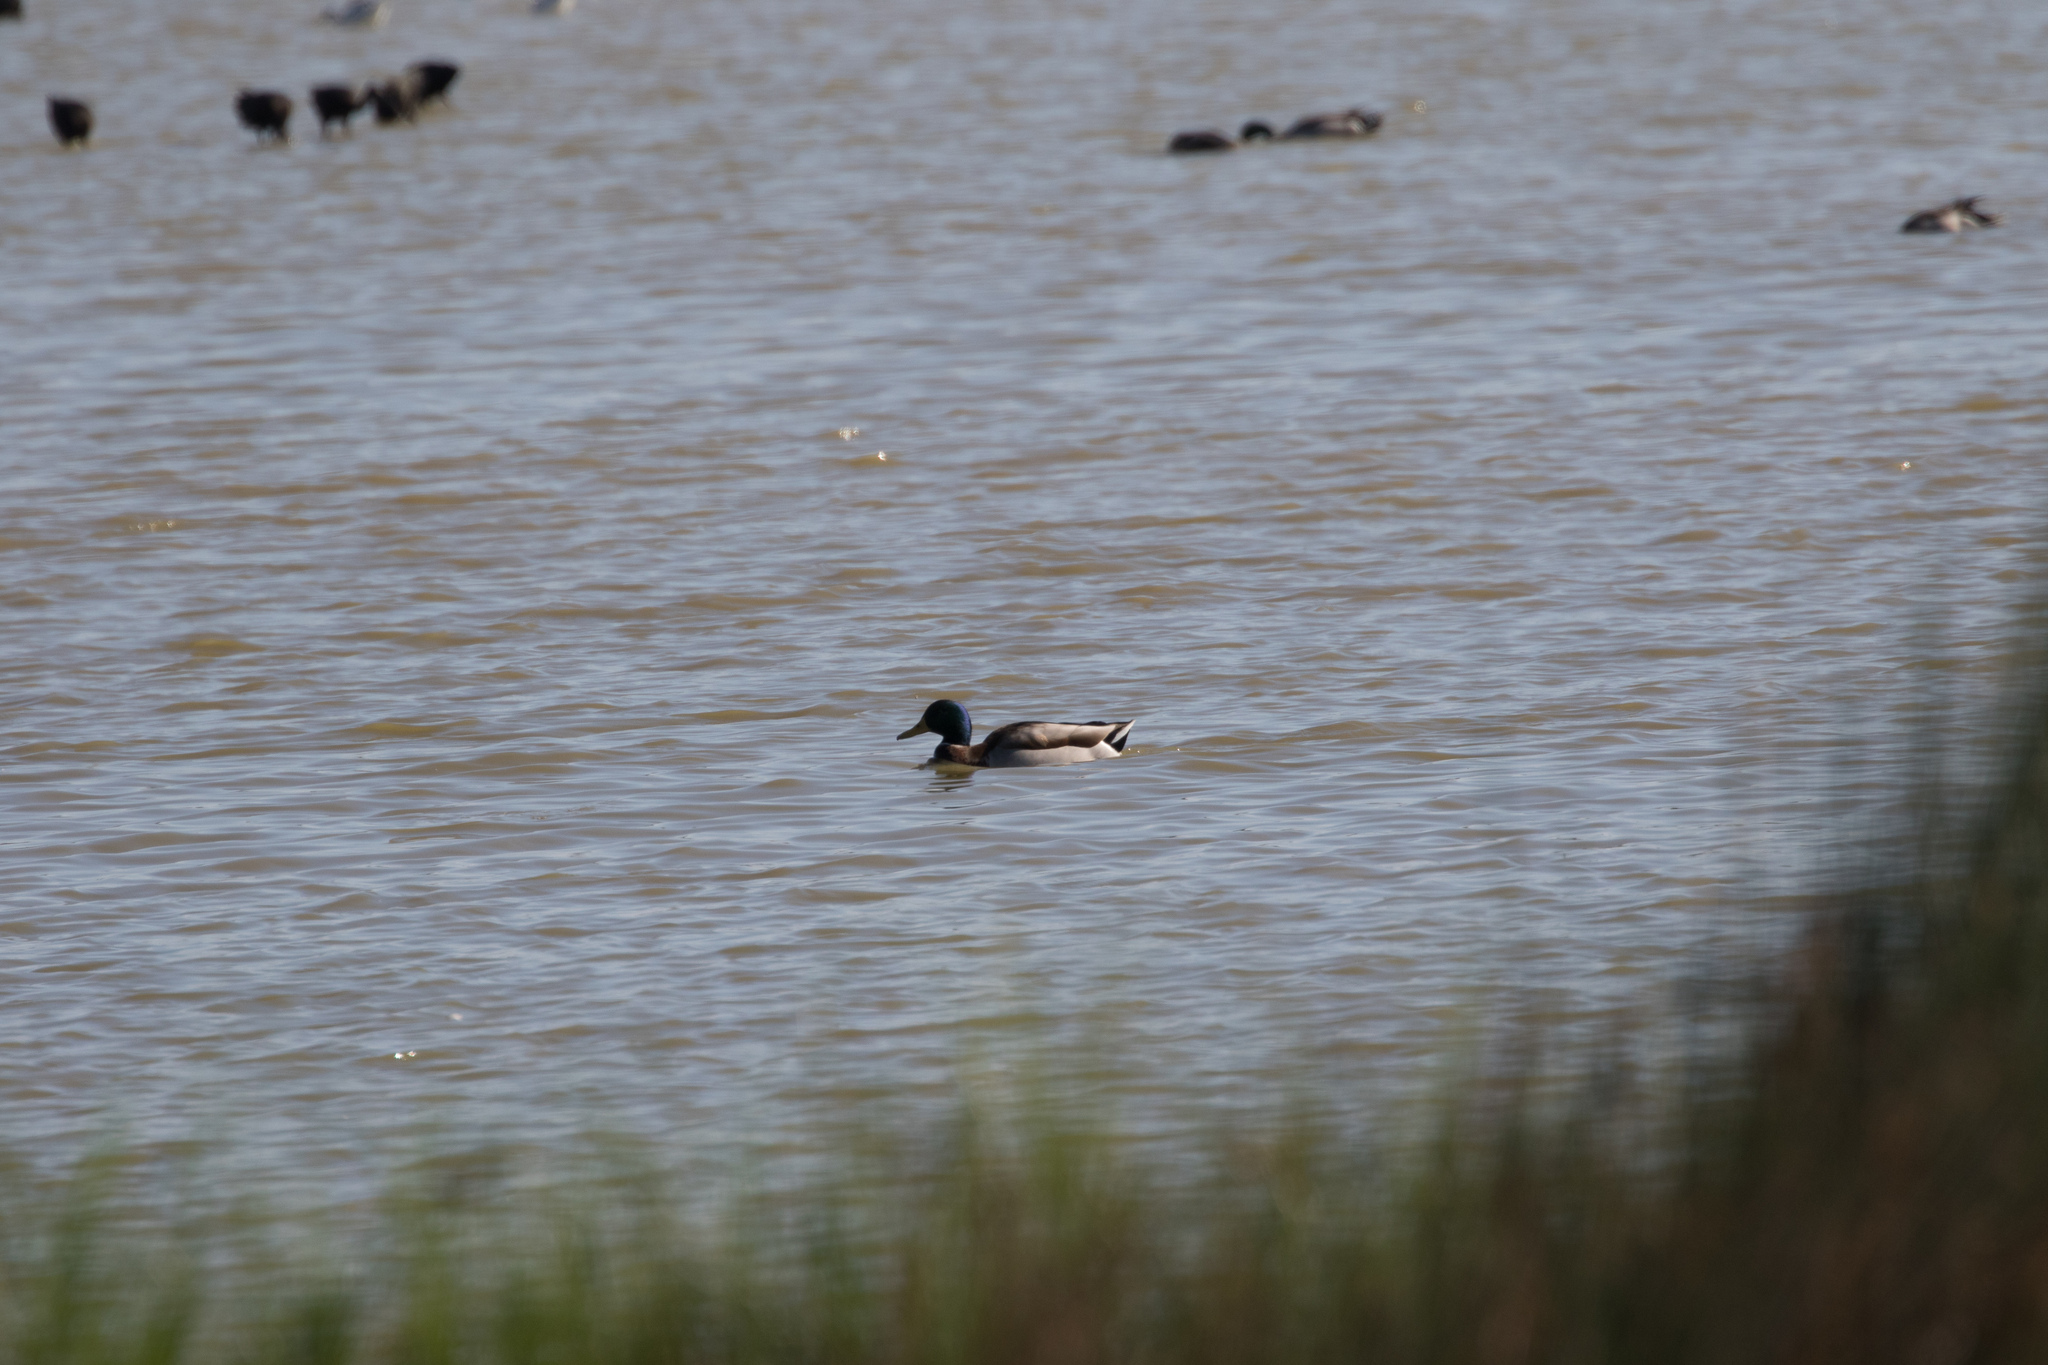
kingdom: Animalia
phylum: Chordata
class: Aves
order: Anseriformes
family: Anatidae
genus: Anas
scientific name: Anas platyrhynchos
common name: Mallard
